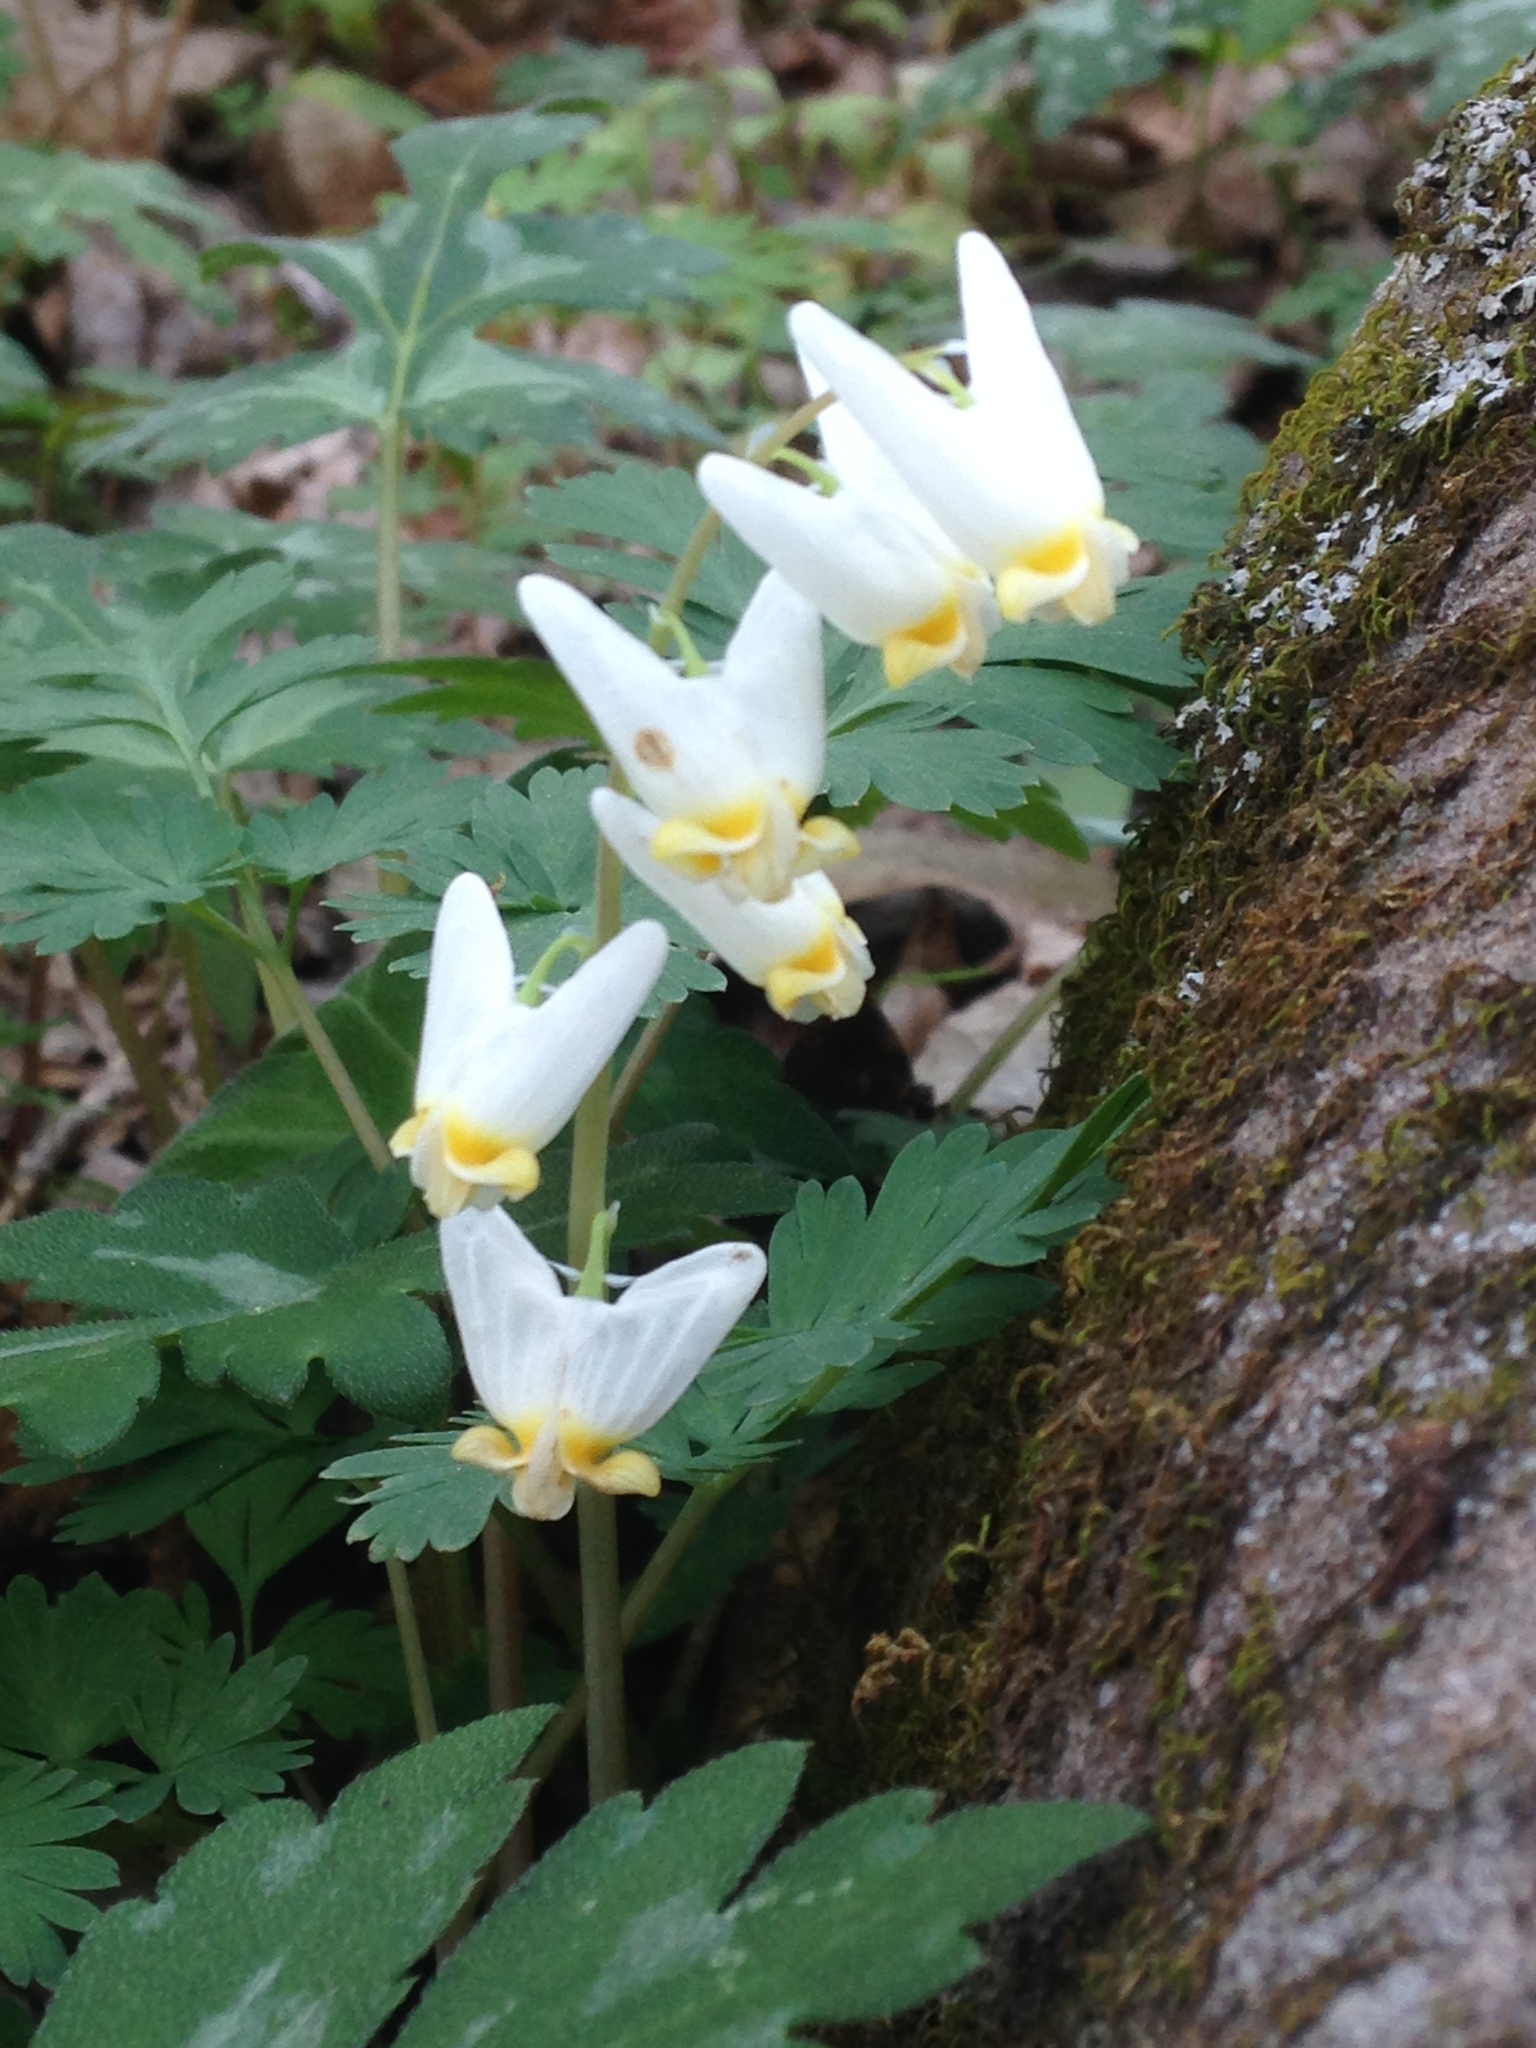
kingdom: Plantae
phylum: Tracheophyta
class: Magnoliopsida
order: Ranunculales
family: Papaveraceae
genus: Dicentra
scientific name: Dicentra cucullaria
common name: Dutchman's breeches
